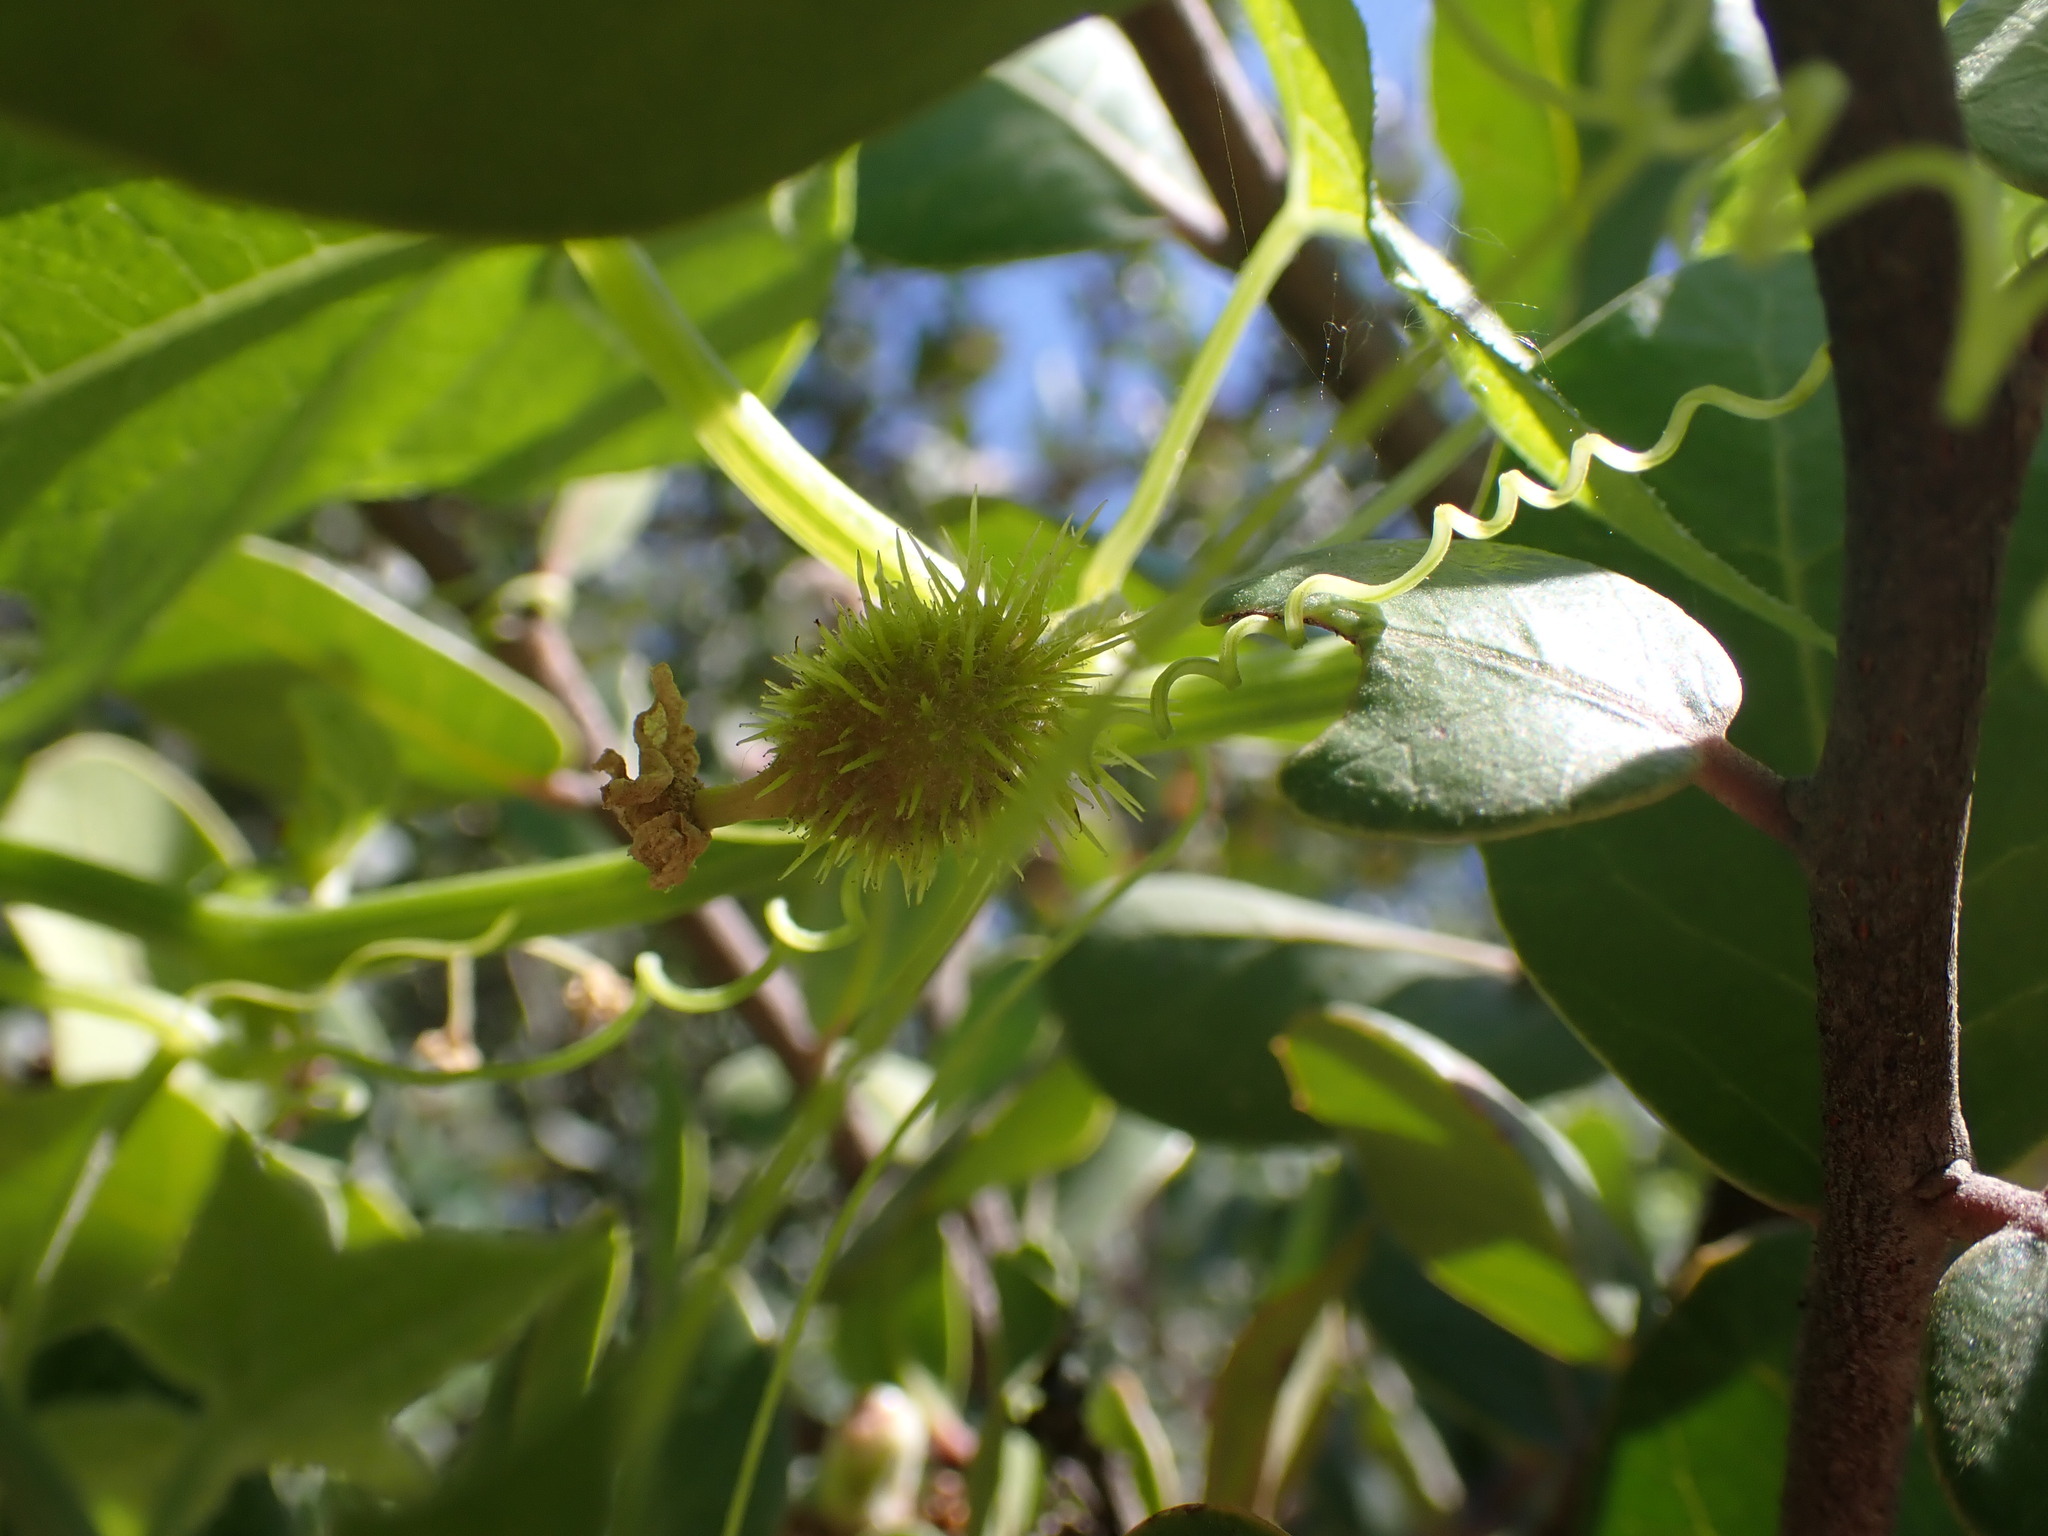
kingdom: Plantae
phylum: Tracheophyta
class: Magnoliopsida
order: Cucurbitales
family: Cucurbitaceae
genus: Marah
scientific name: Marah macrocarpa
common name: Cucamonga manroot
